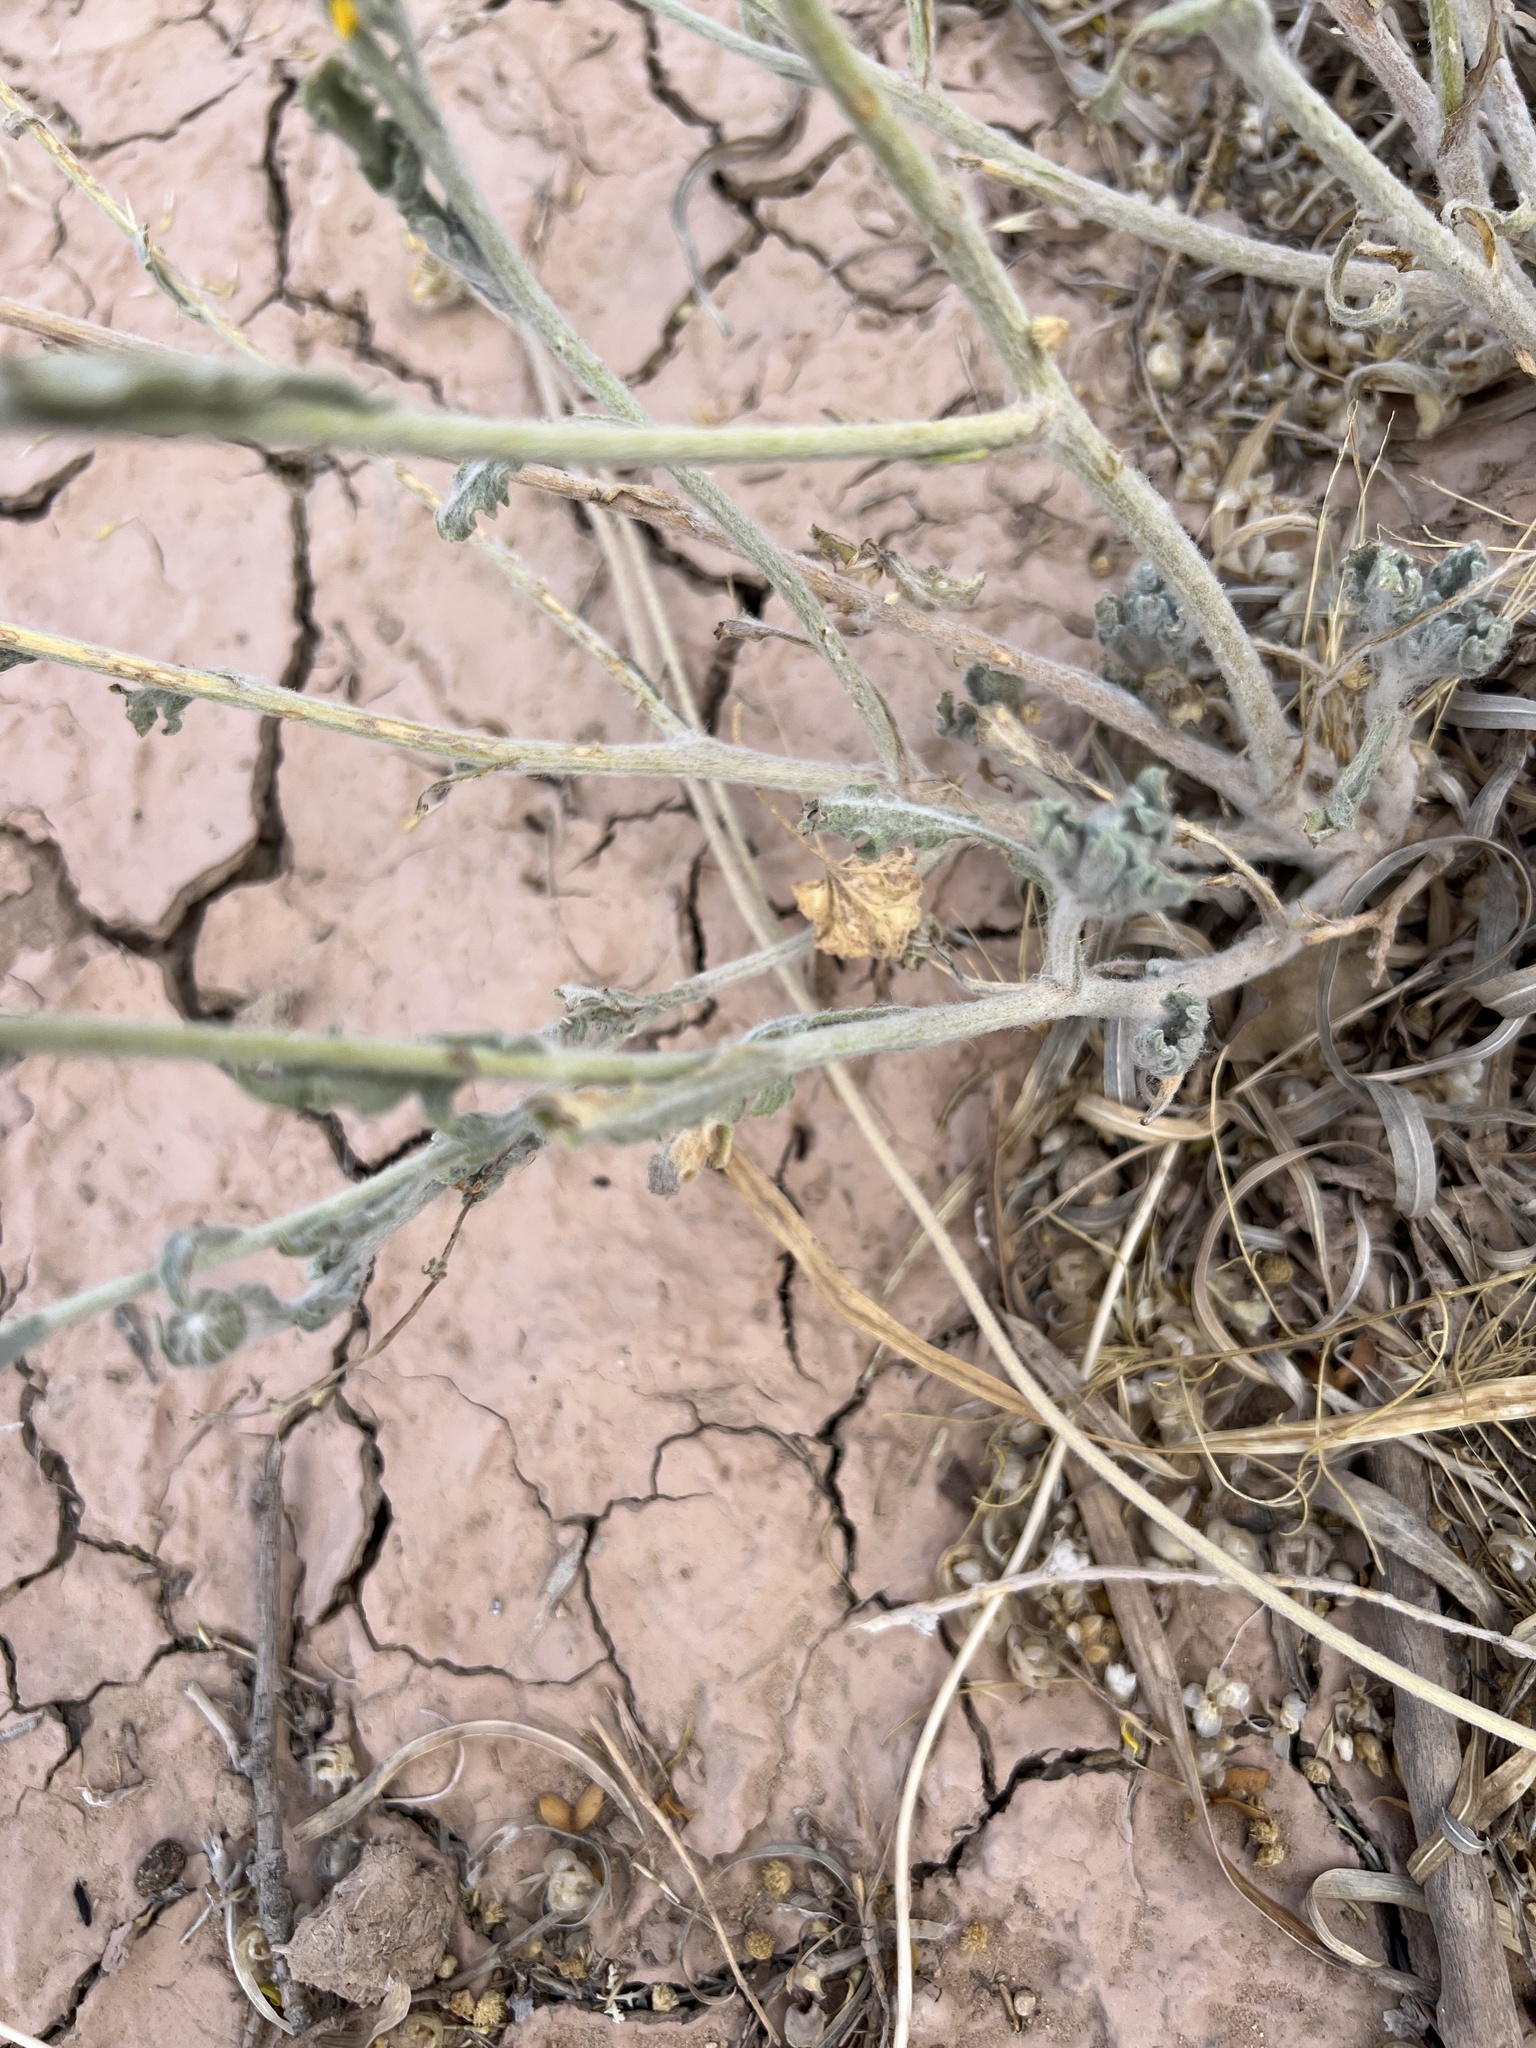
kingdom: Plantae
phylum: Tracheophyta
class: Magnoliopsida
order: Asterales
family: Asteraceae
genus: Baileya
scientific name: Baileya multiradiata
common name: Desert-marigold
